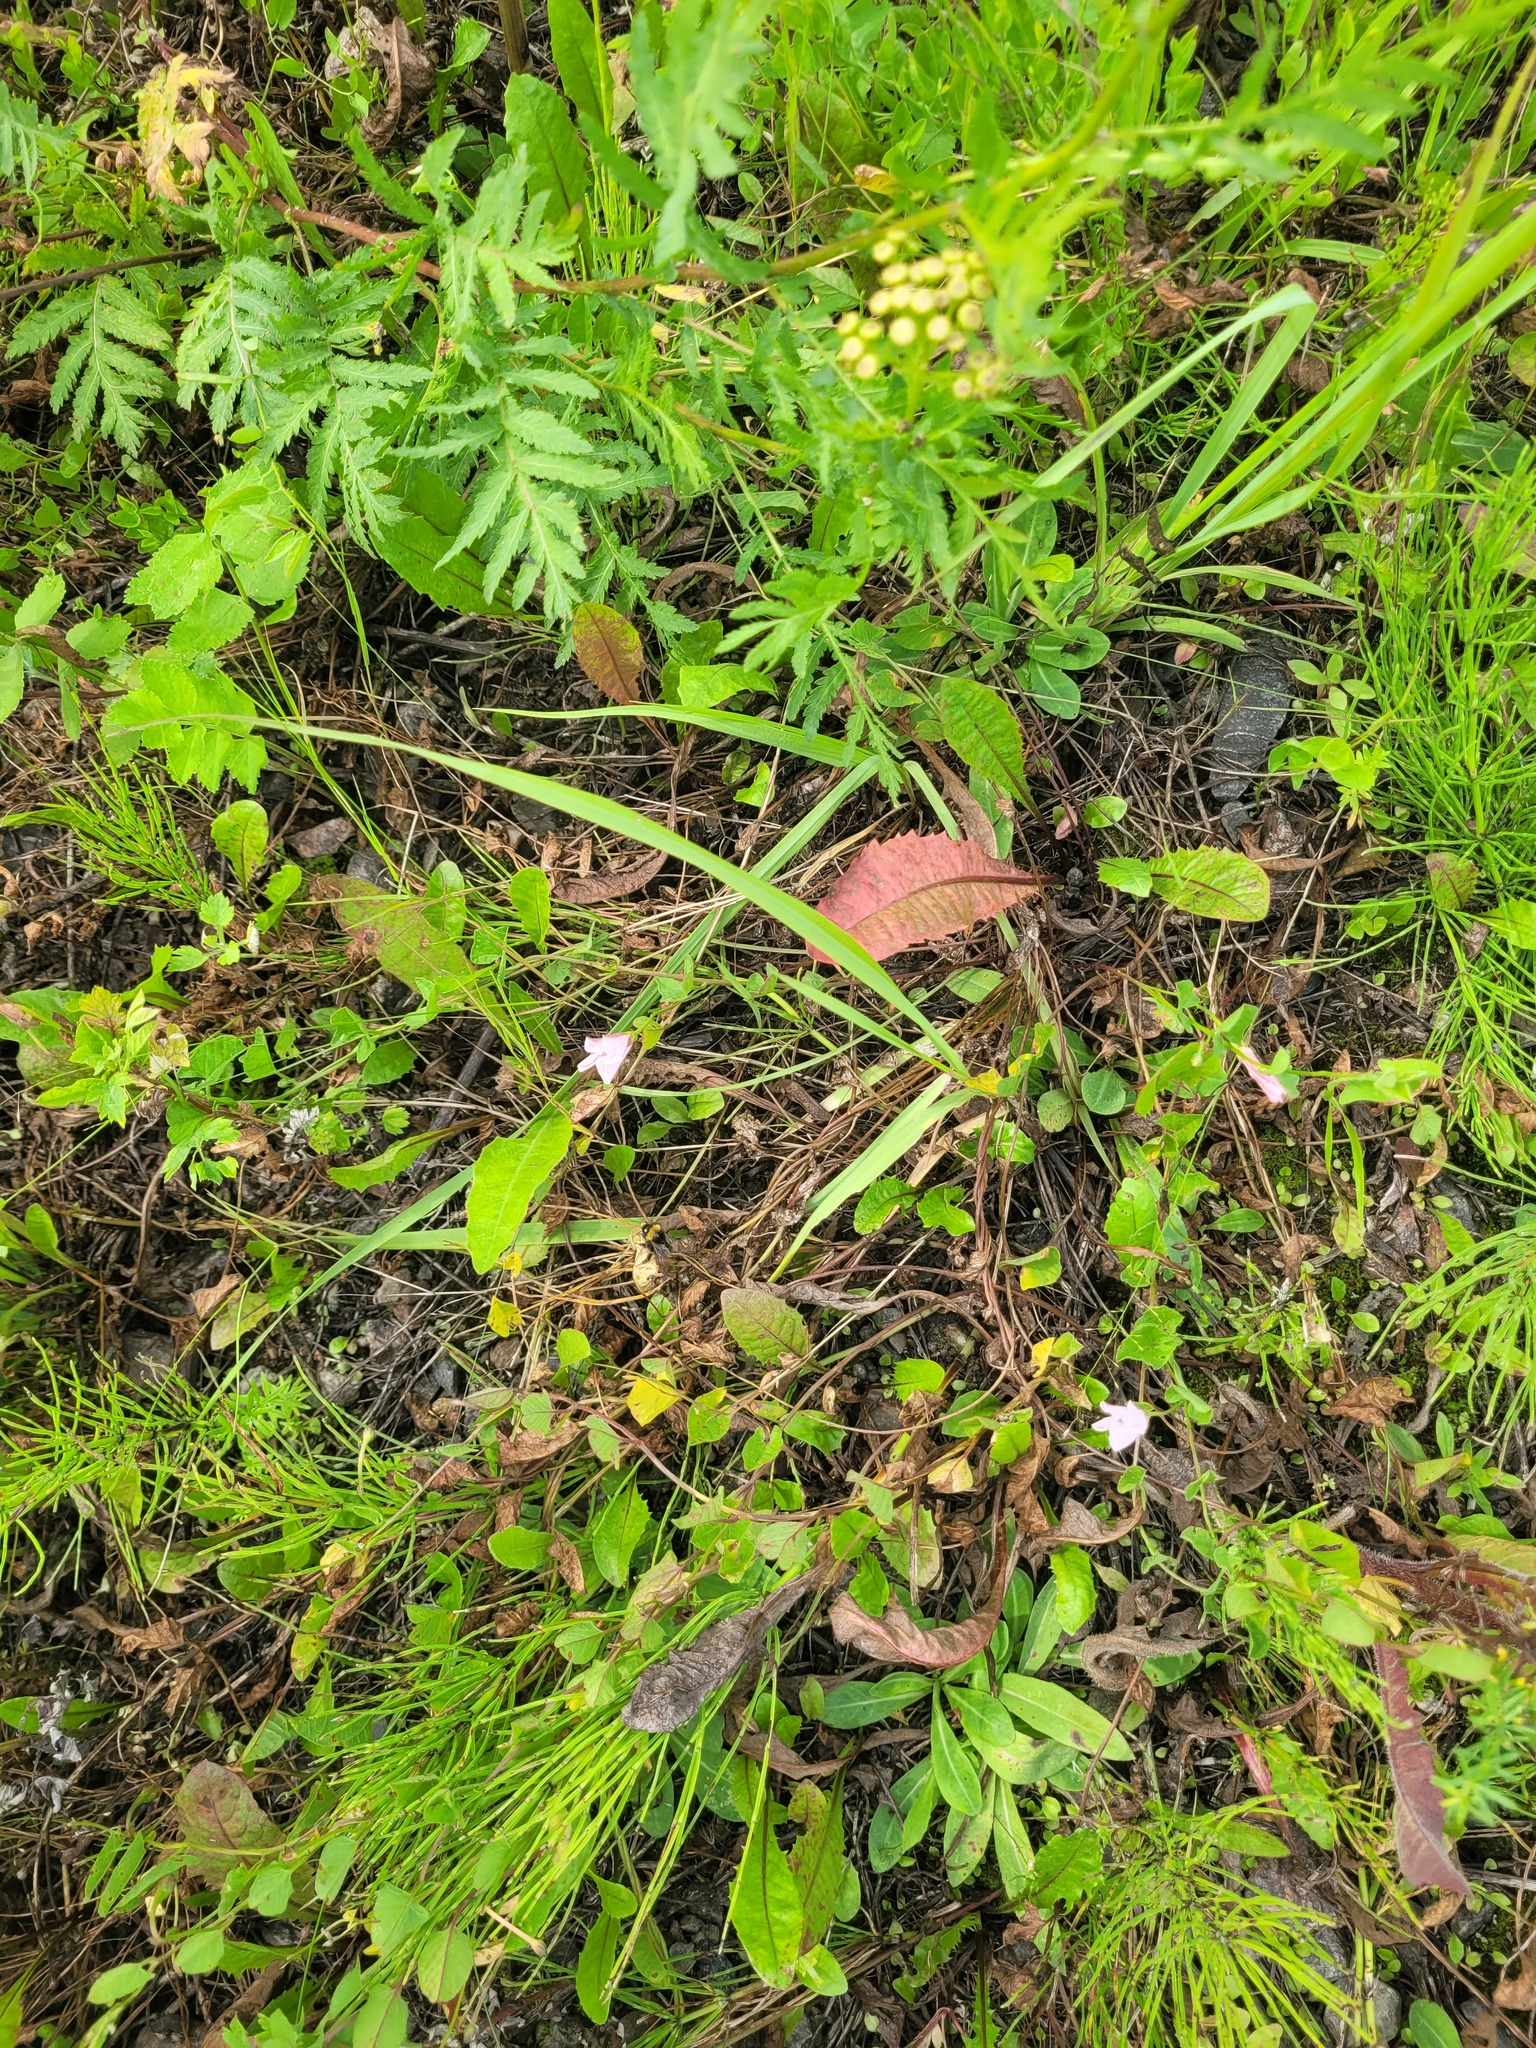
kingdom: Plantae
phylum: Tracheophyta
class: Magnoliopsida
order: Solanales
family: Convolvulaceae
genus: Convolvulus
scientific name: Convolvulus arvensis
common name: Field bindweed
